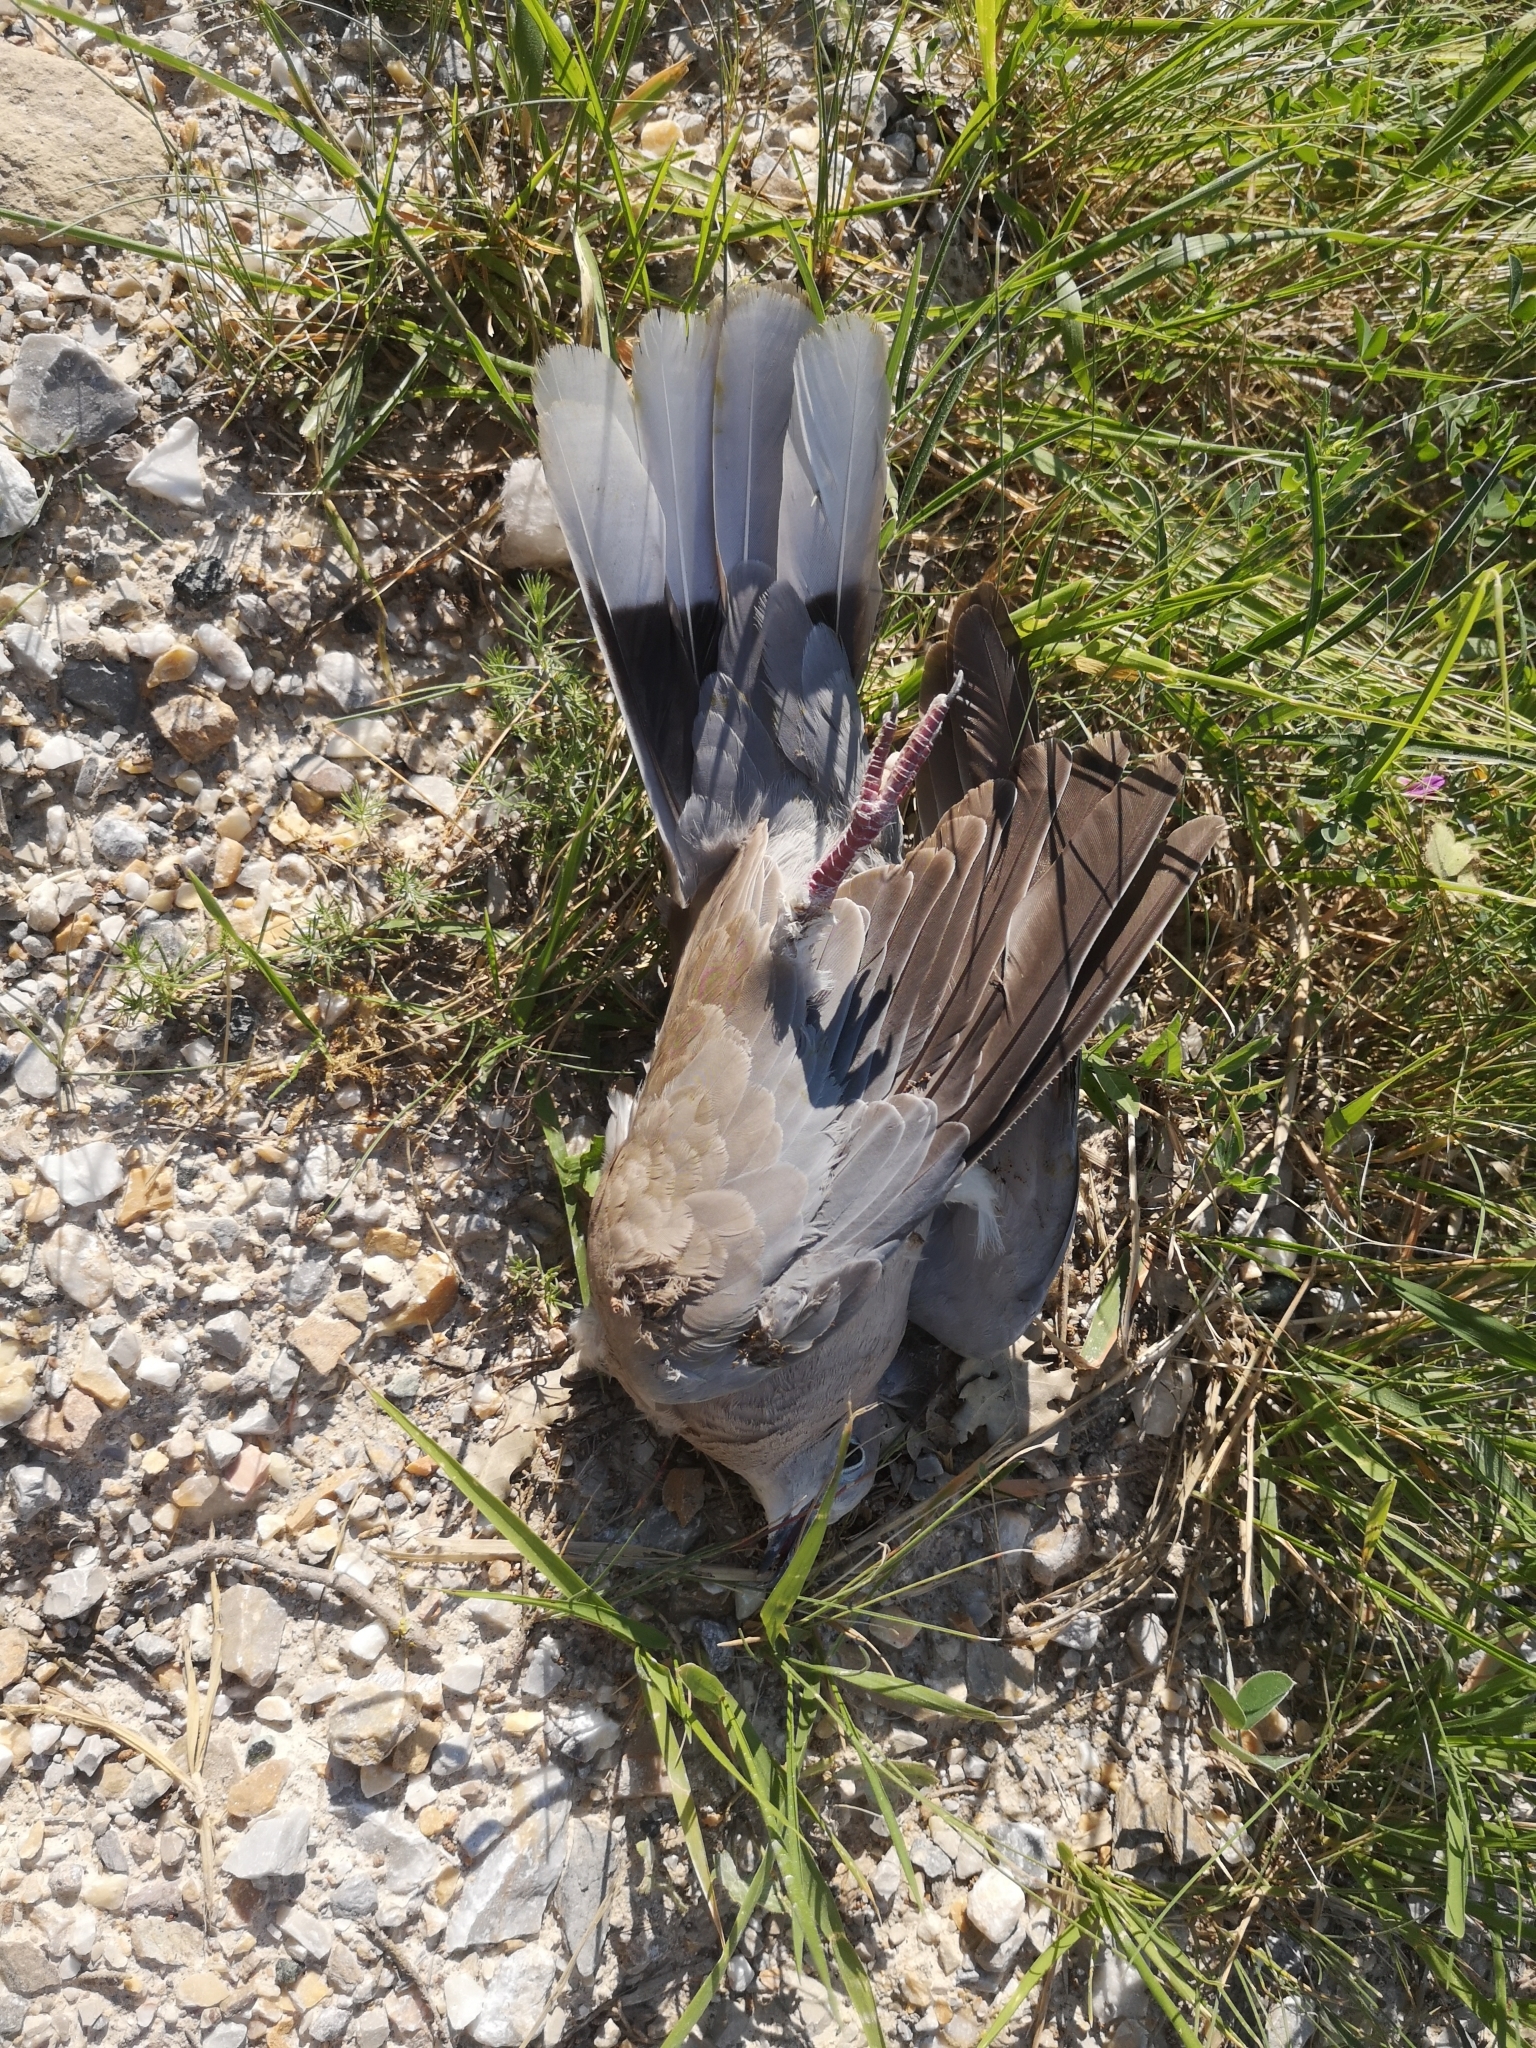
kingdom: Animalia
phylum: Chordata
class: Aves
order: Columbiformes
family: Columbidae
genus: Streptopelia
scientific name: Streptopelia decaocto
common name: Eurasian collared dove
